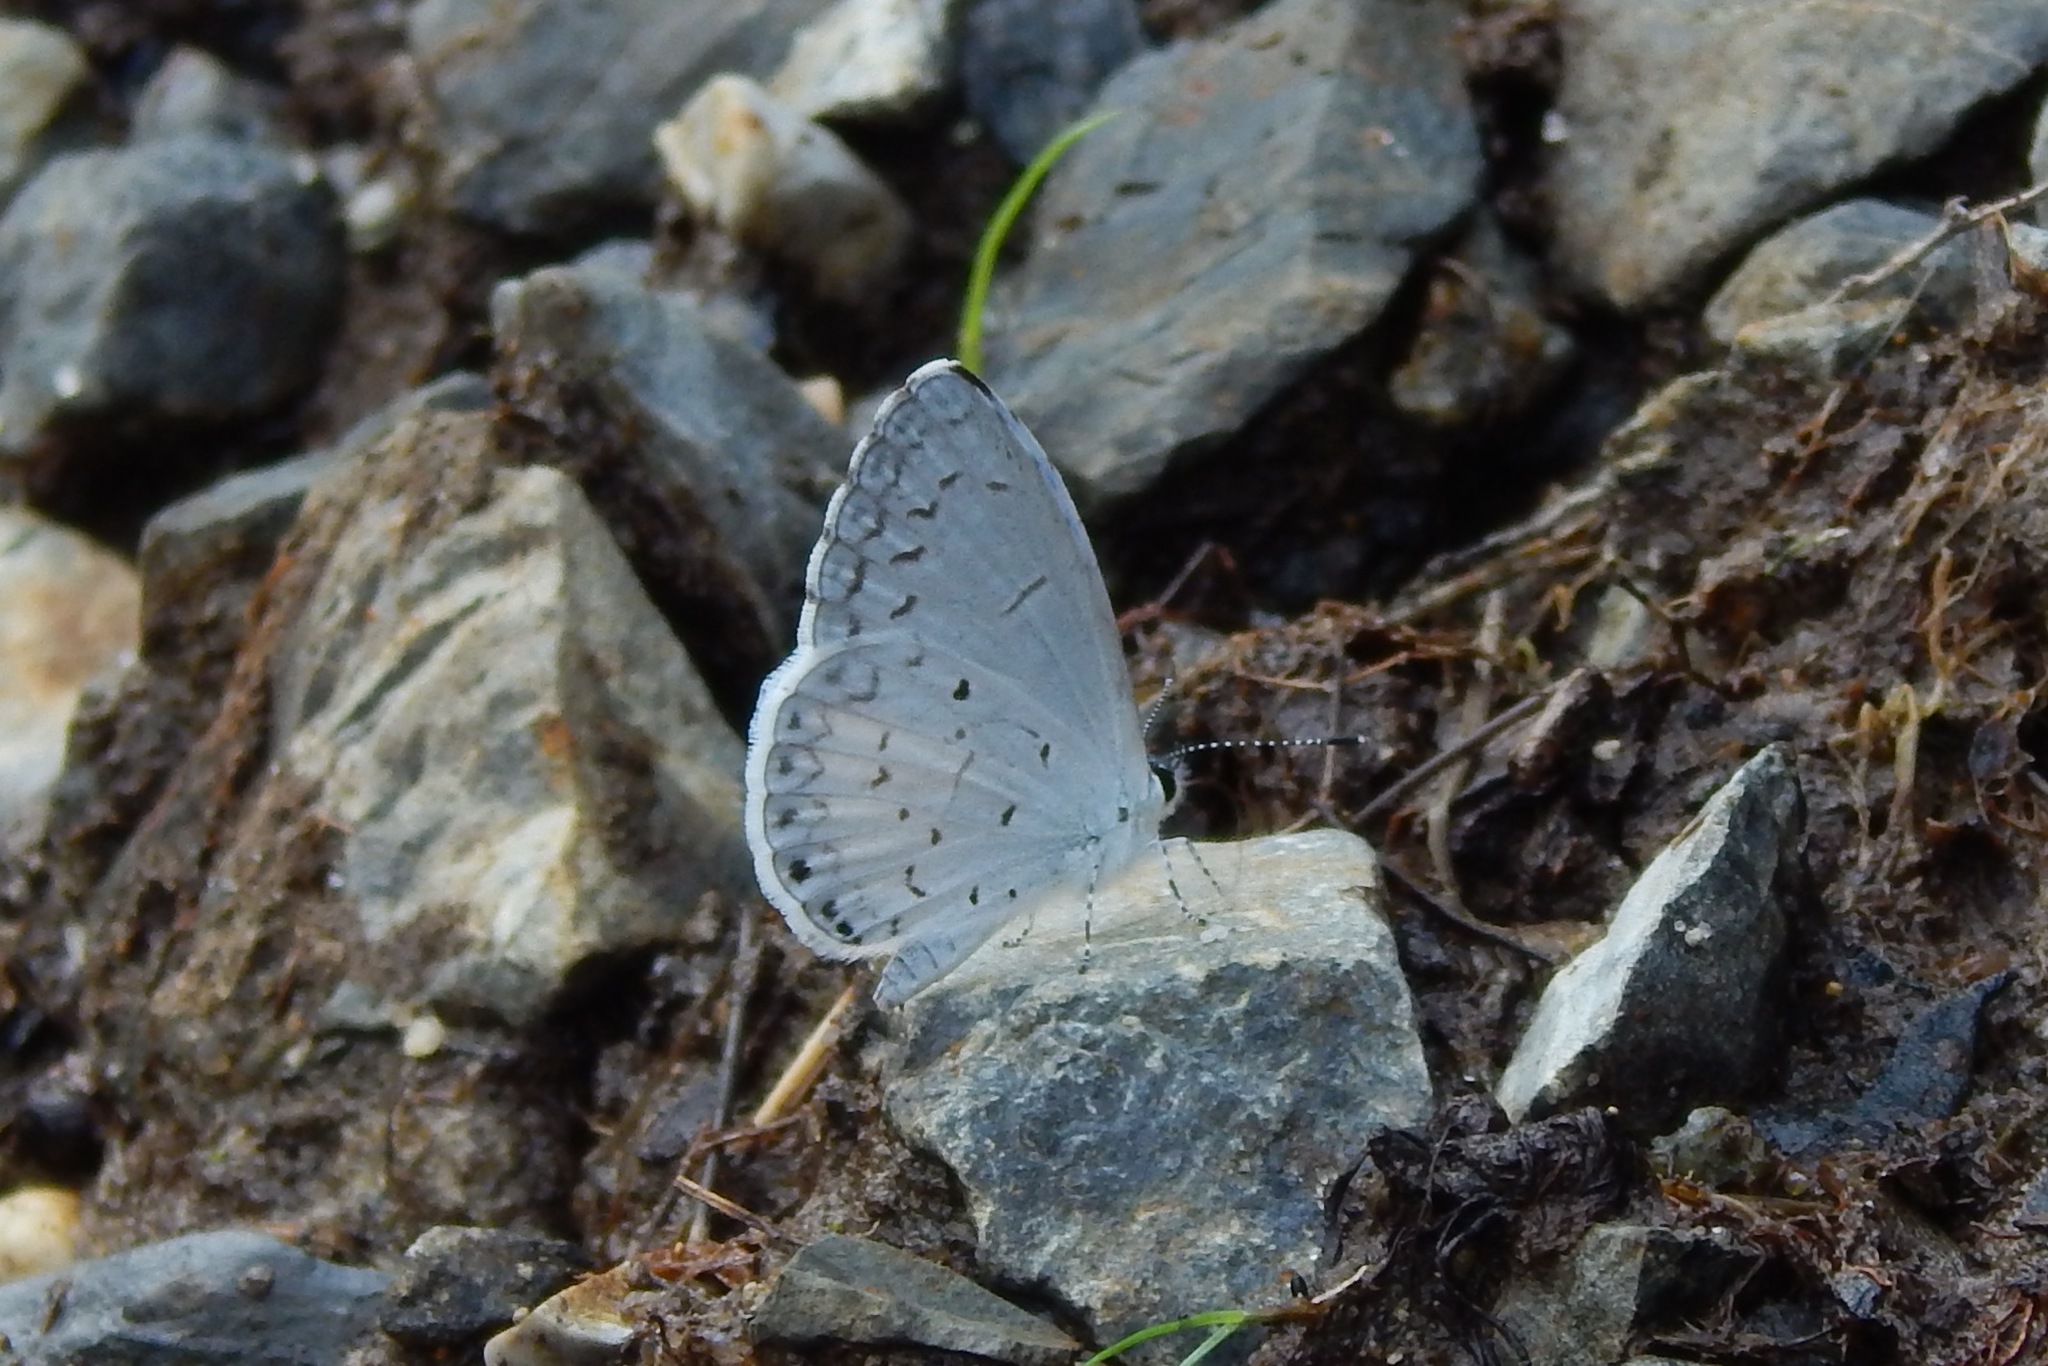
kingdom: Animalia
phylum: Arthropoda
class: Insecta
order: Lepidoptera
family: Lycaenidae
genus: Cyaniris
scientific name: Cyaniris neglecta
